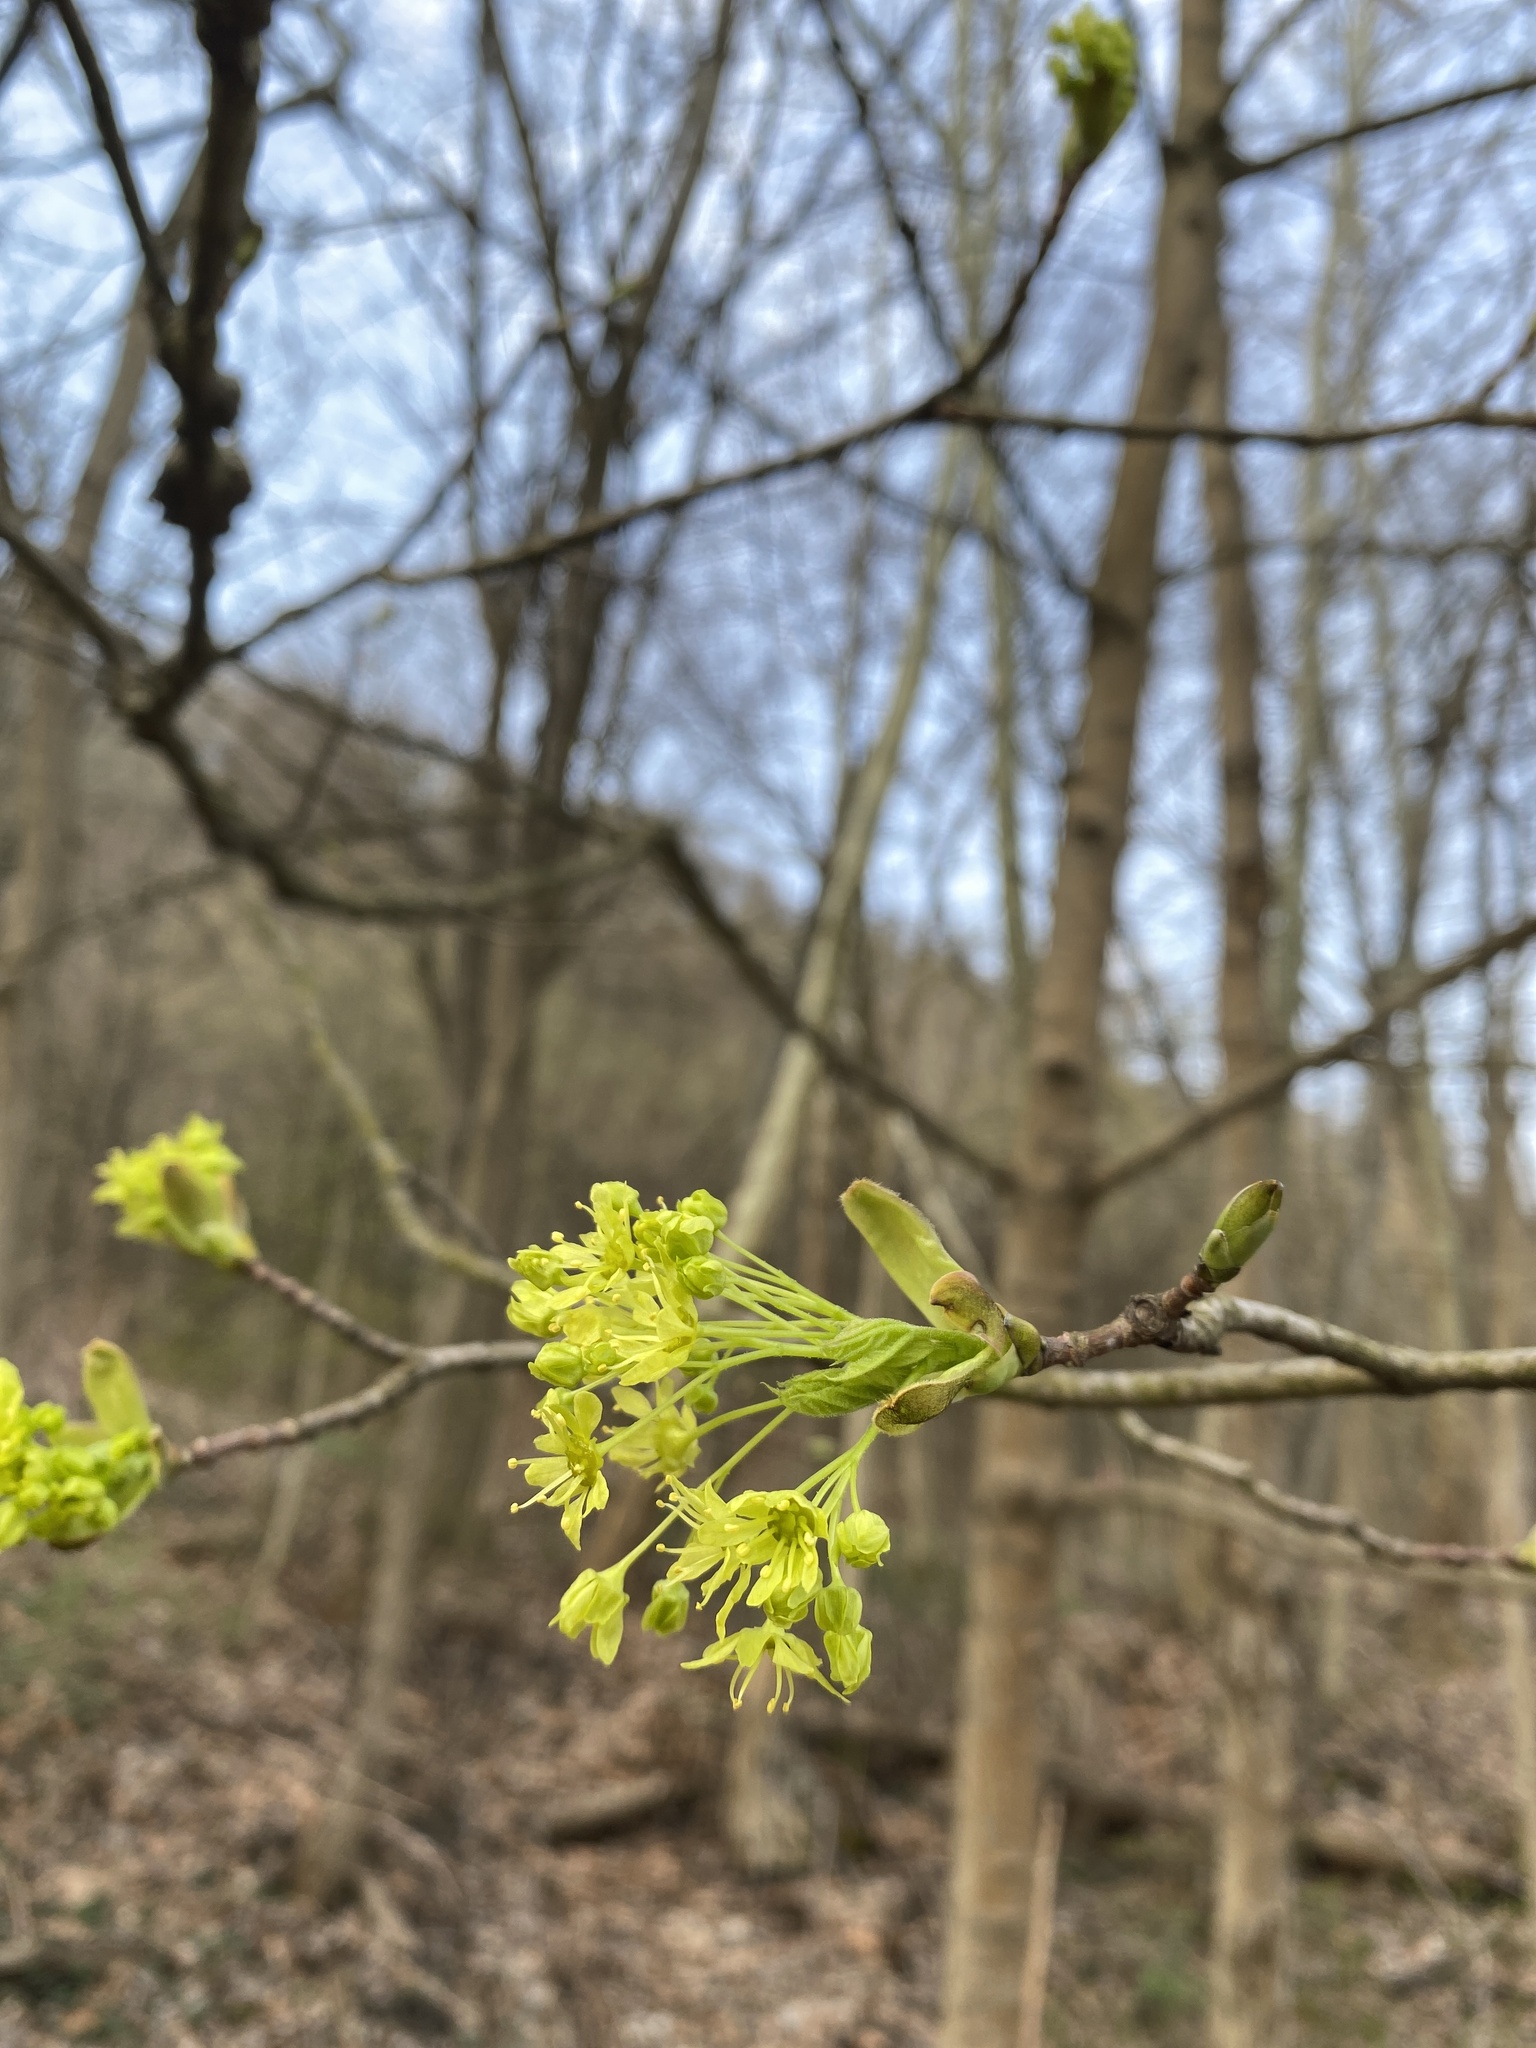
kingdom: Plantae
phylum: Tracheophyta
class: Magnoliopsida
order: Sapindales
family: Sapindaceae
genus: Acer
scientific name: Acer platanoides
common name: Norway maple
